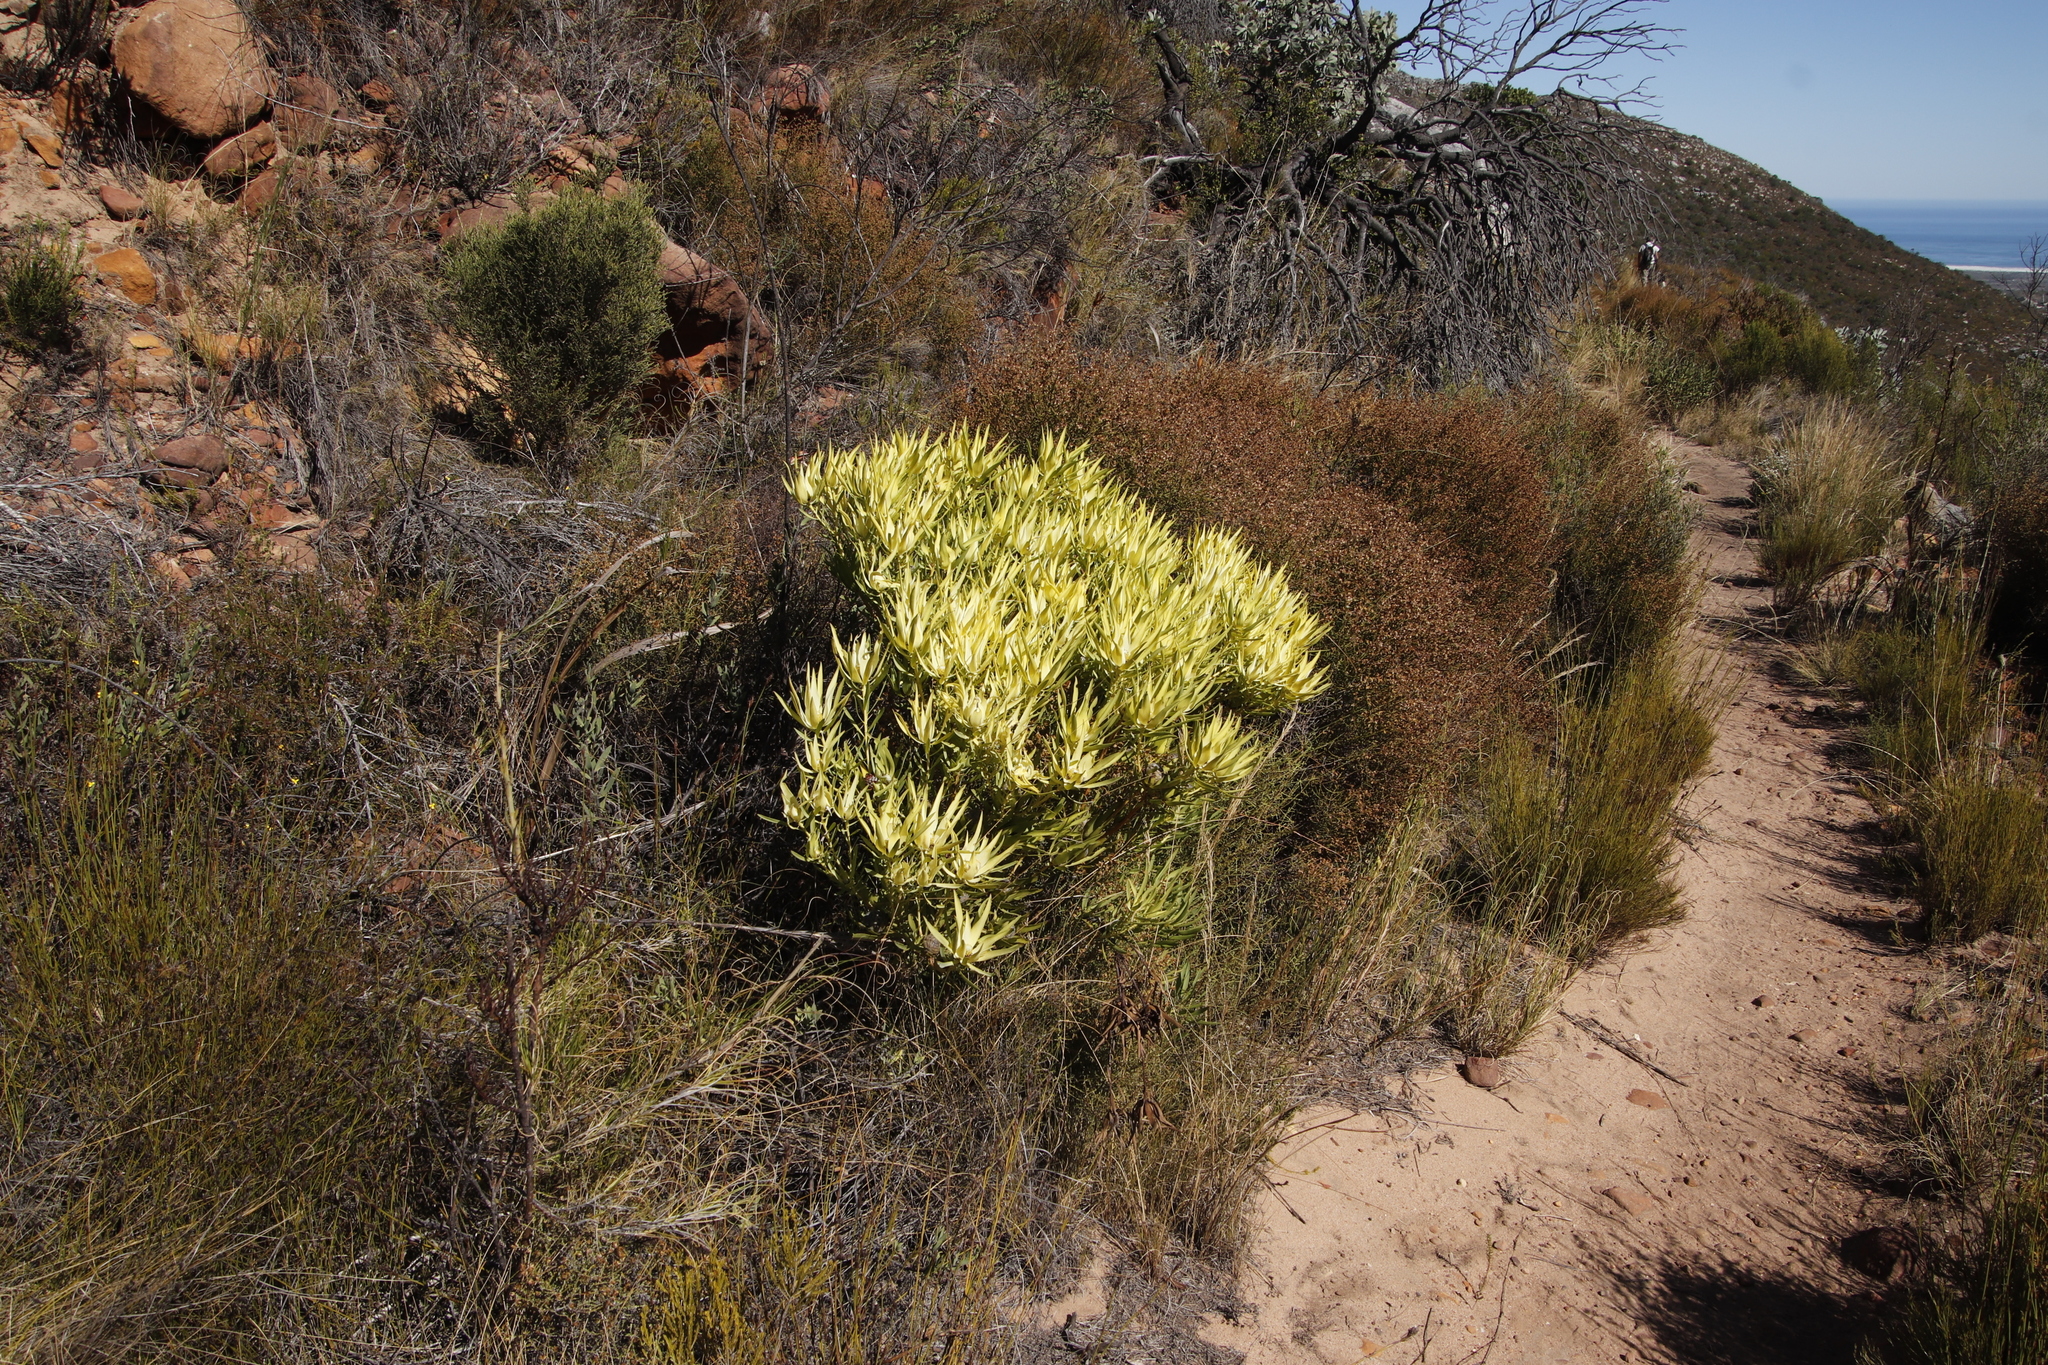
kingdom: Plantae
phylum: Tracheophyta
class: Magnoliopsida
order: Proteales
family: Proteaceae
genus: Leucadendron
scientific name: Leucadendron salignum
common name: Common sunshine conebush
